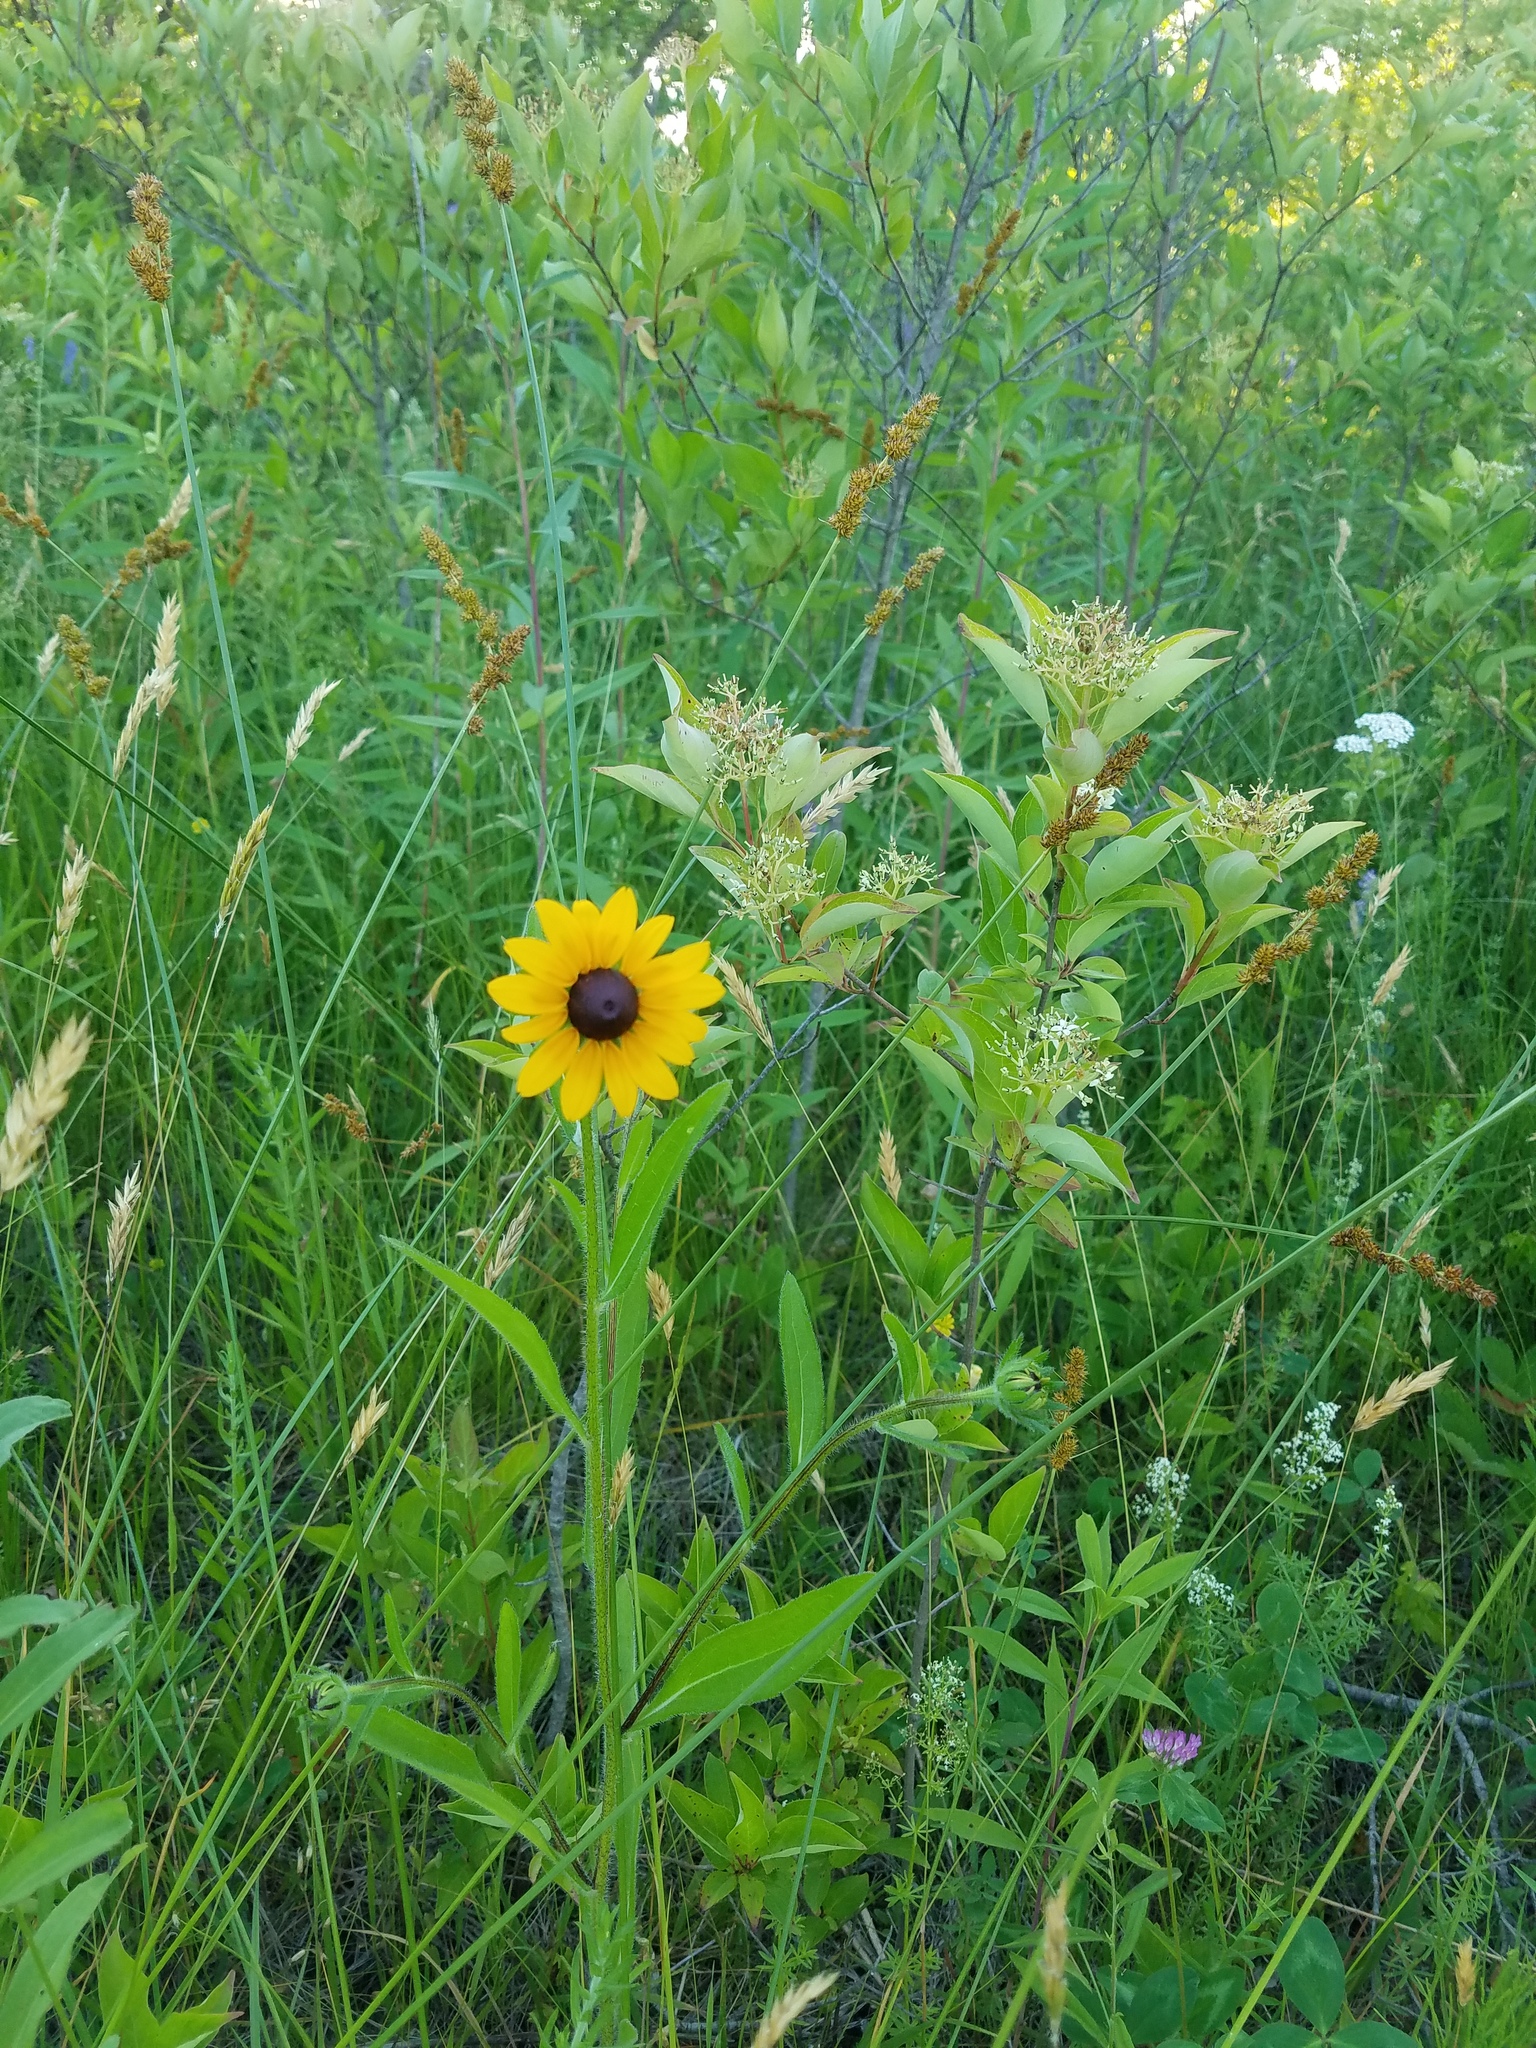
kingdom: Plantae
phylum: Tracheophyta
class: Magnoliopsida
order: Asterales
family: Asteraceae
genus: Rudbeckia
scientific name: Rudbeckia hirta
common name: Black-eyed-susan
